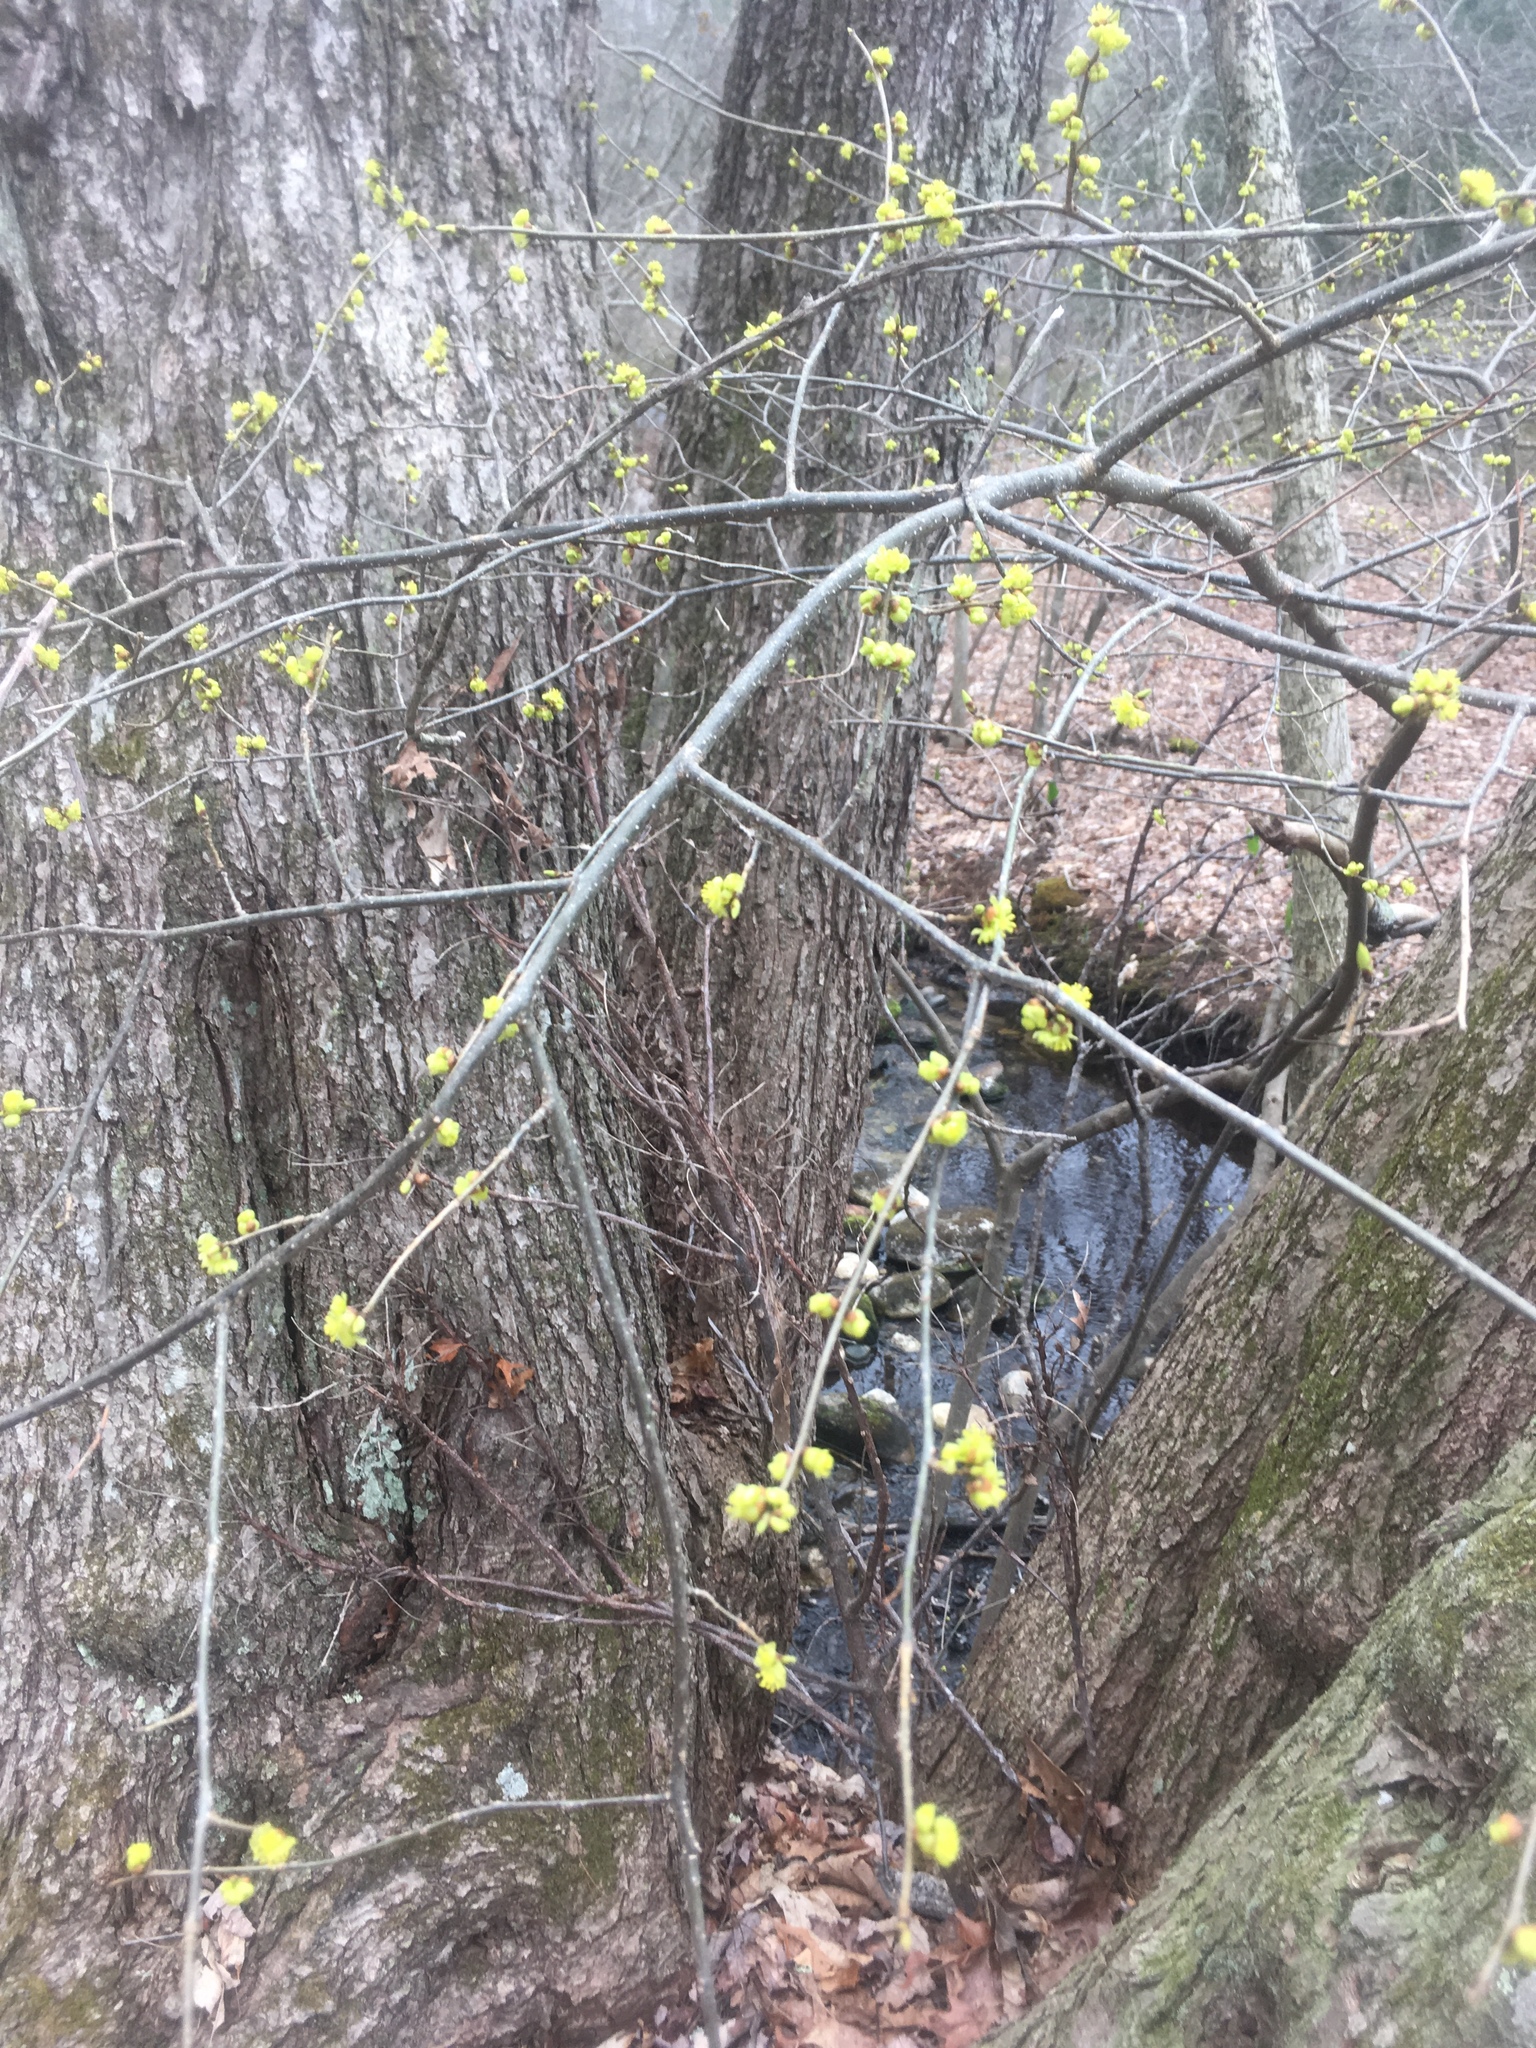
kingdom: Plantae
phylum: Tracheophyta
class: Magnoliopsida
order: Laurales
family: Lauraceae
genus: Lindera
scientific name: Lindera benzoin
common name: Spicebush
